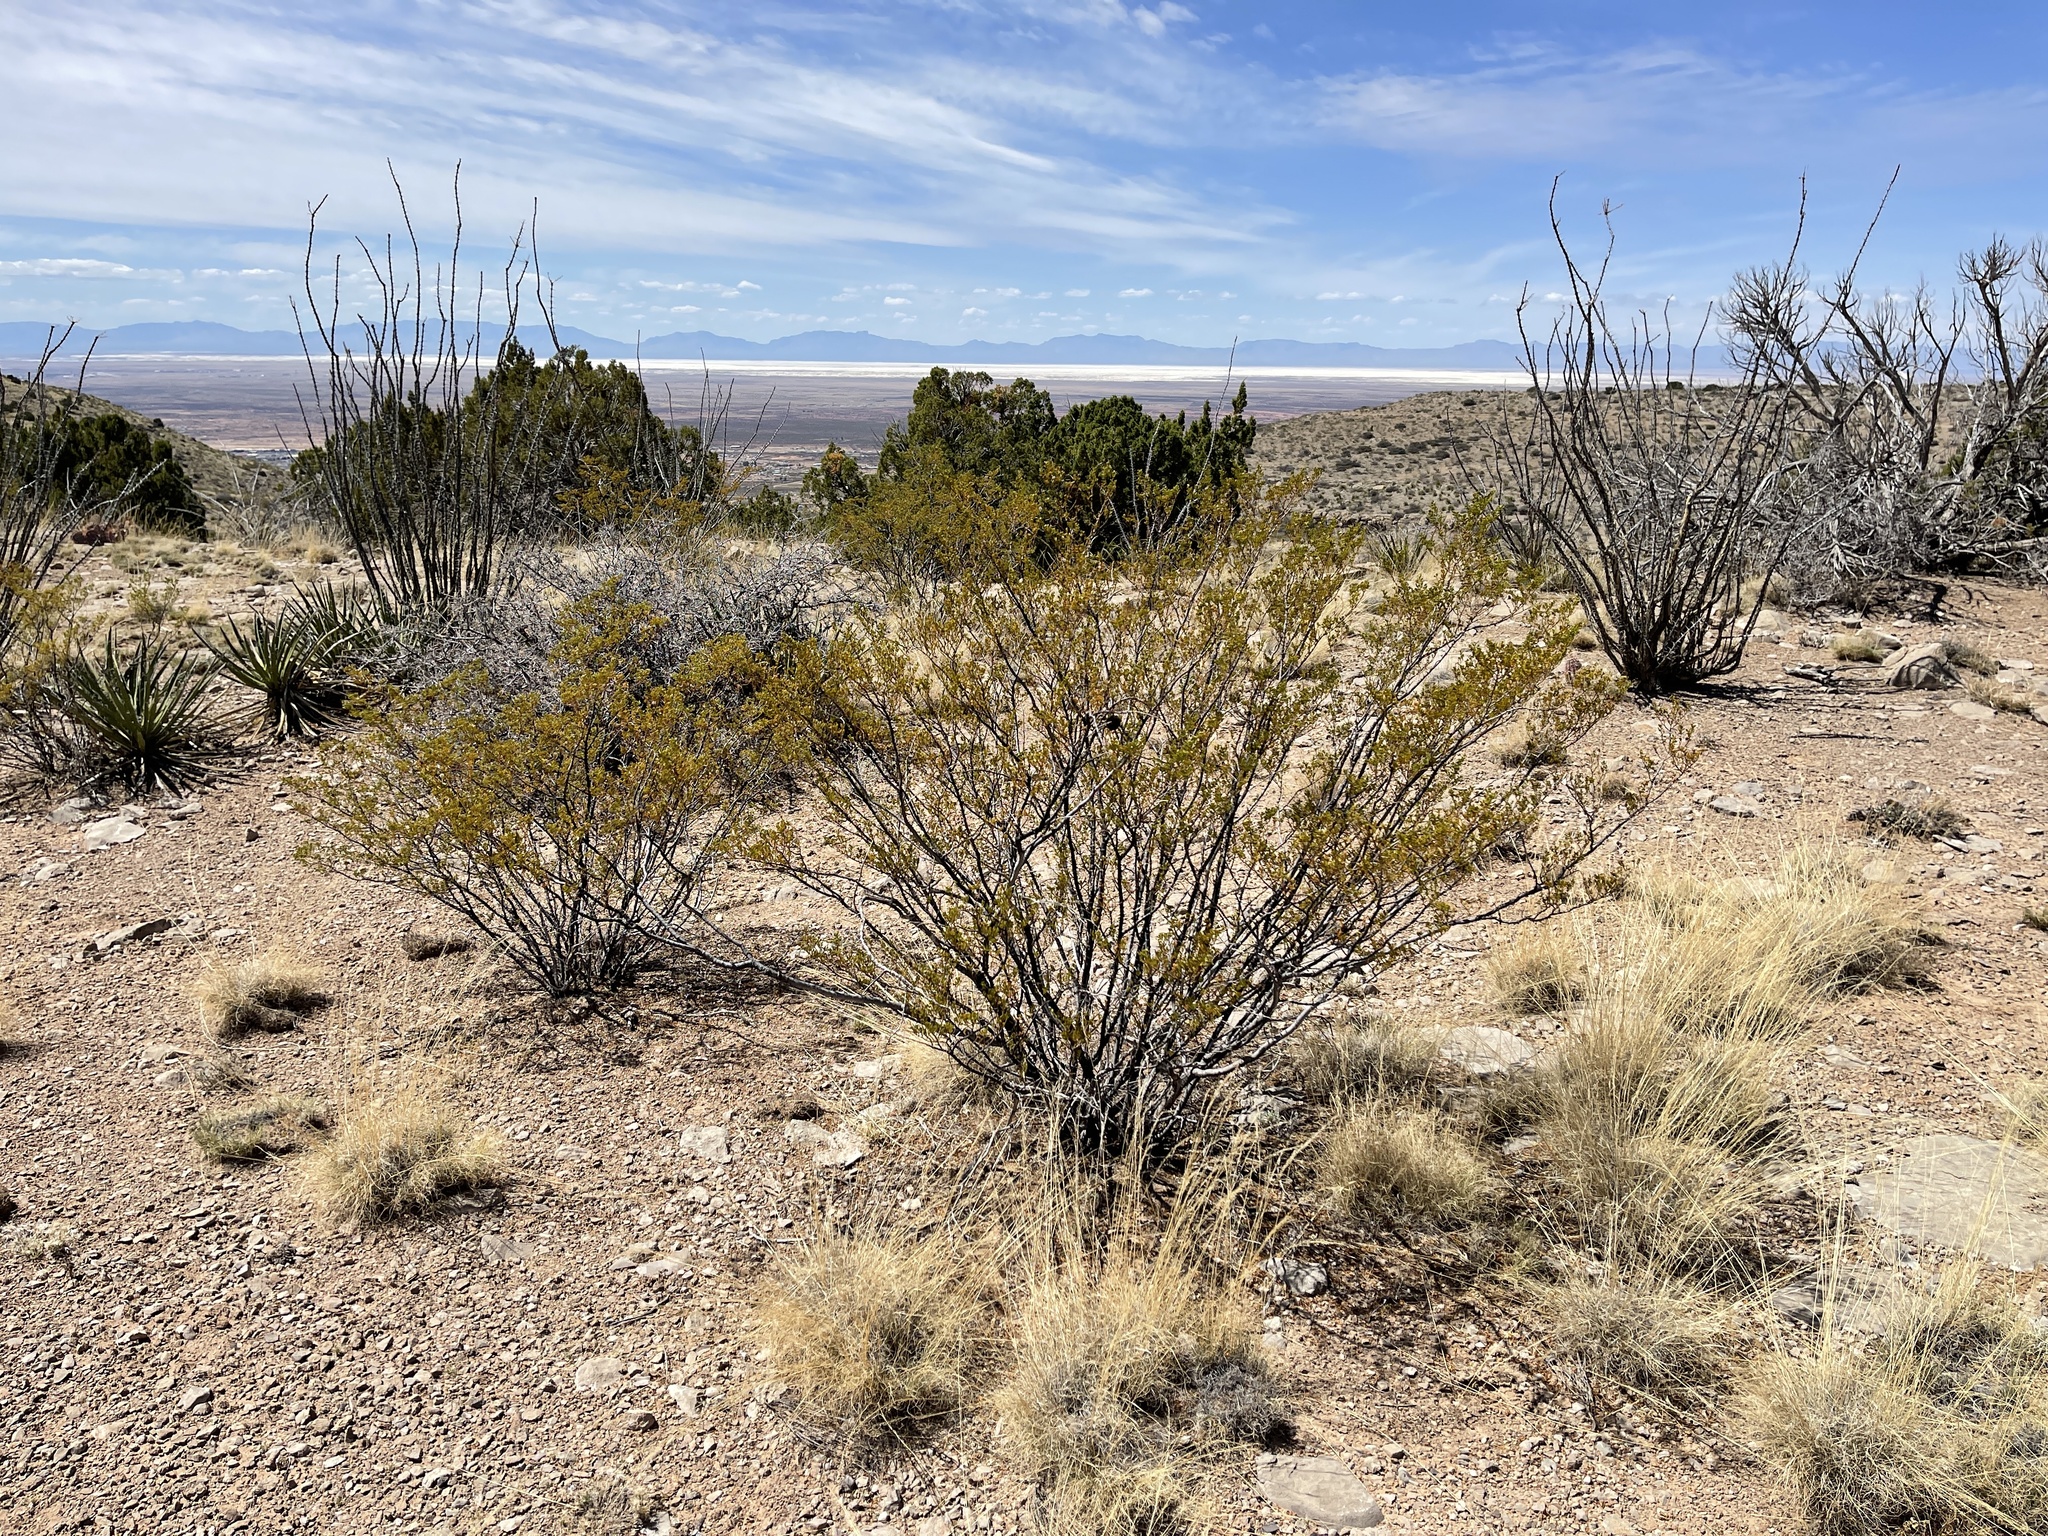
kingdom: Plantae
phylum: Tracheophyta
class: Magnoliopsida
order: Zygophyllales
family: Zygophyllaceae
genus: Larrea
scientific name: Larrea tridentata
